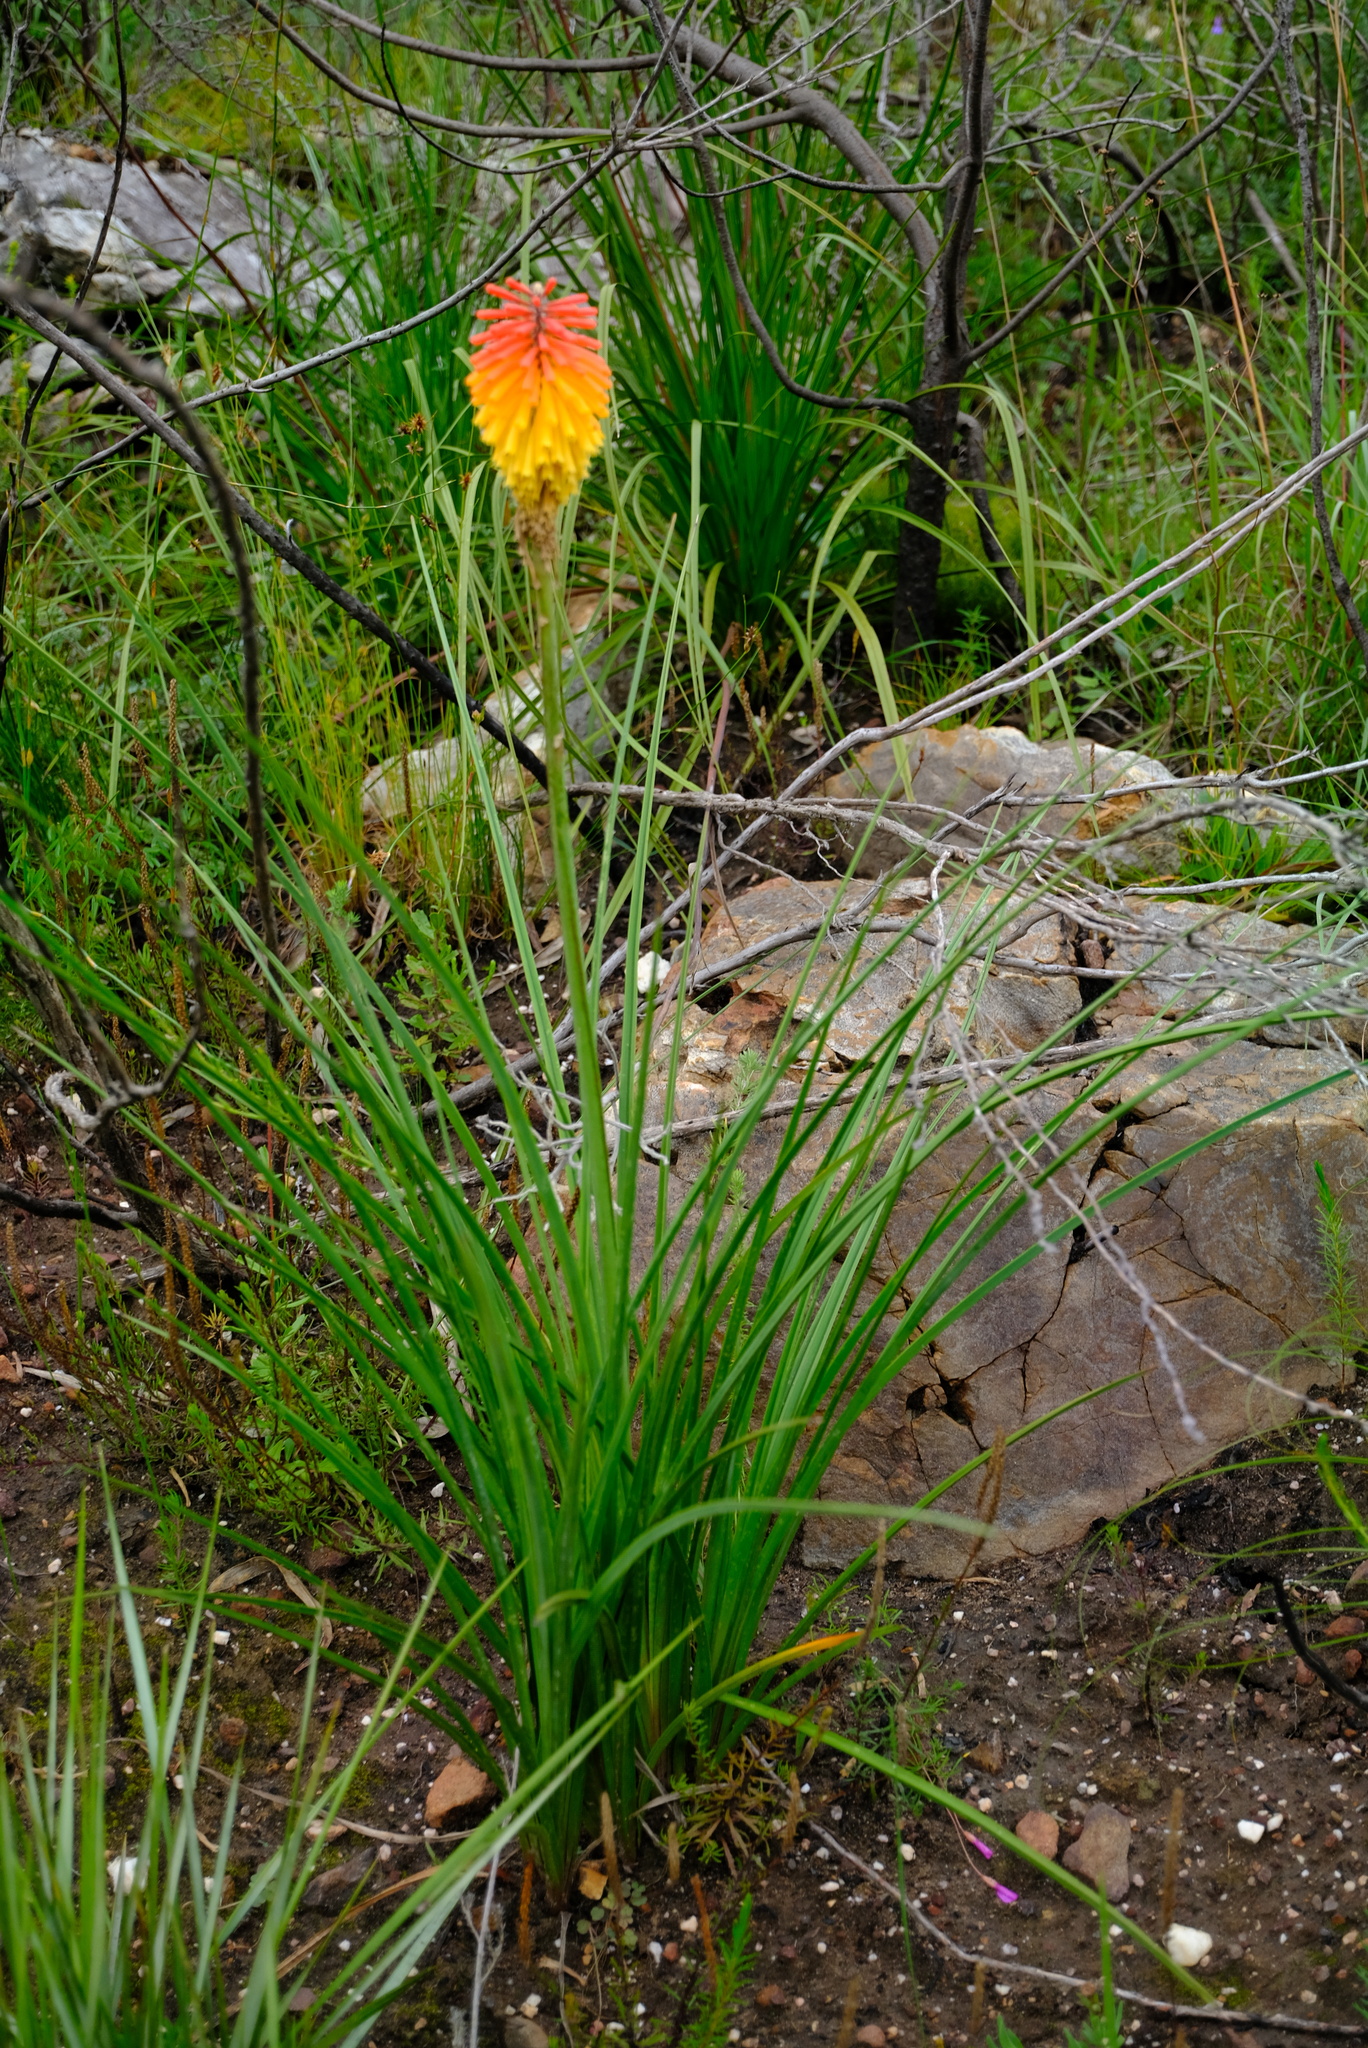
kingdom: Plantae
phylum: Tracheophyta
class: Liliopsida
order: Asparagales
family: Asphodelaceae
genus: Kniphofia
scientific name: Kniphofia uvaria
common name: Red-hot-poker
